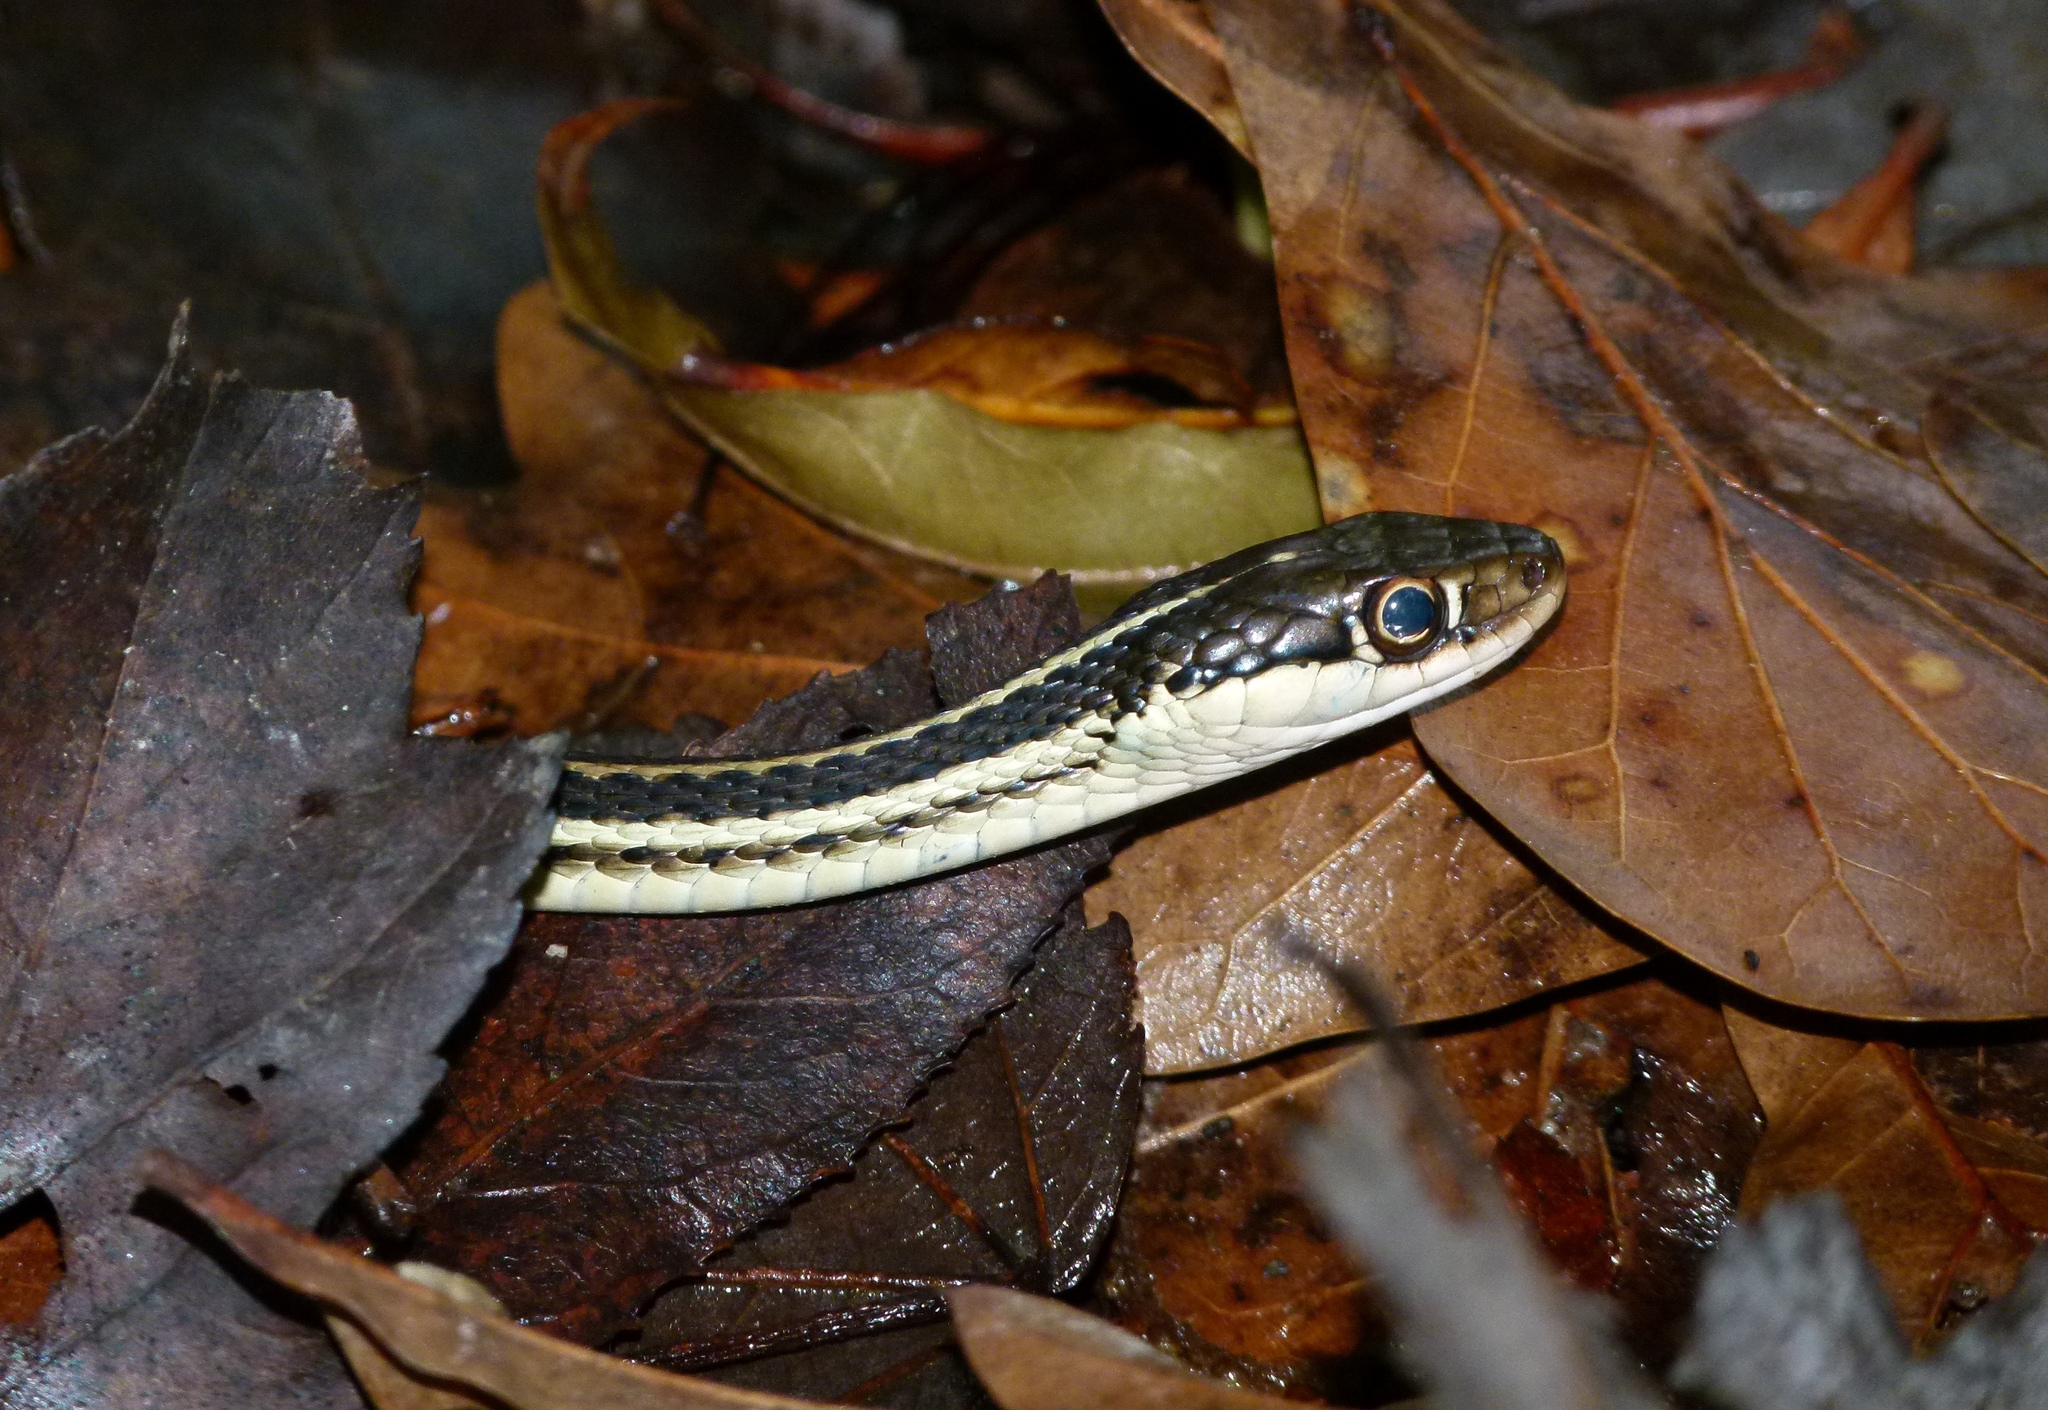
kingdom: Animalia
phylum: Chordata
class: Squamata
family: Colubridae
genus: Thamnophis
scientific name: Thamnophis proximus
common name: Western ribbon snake
